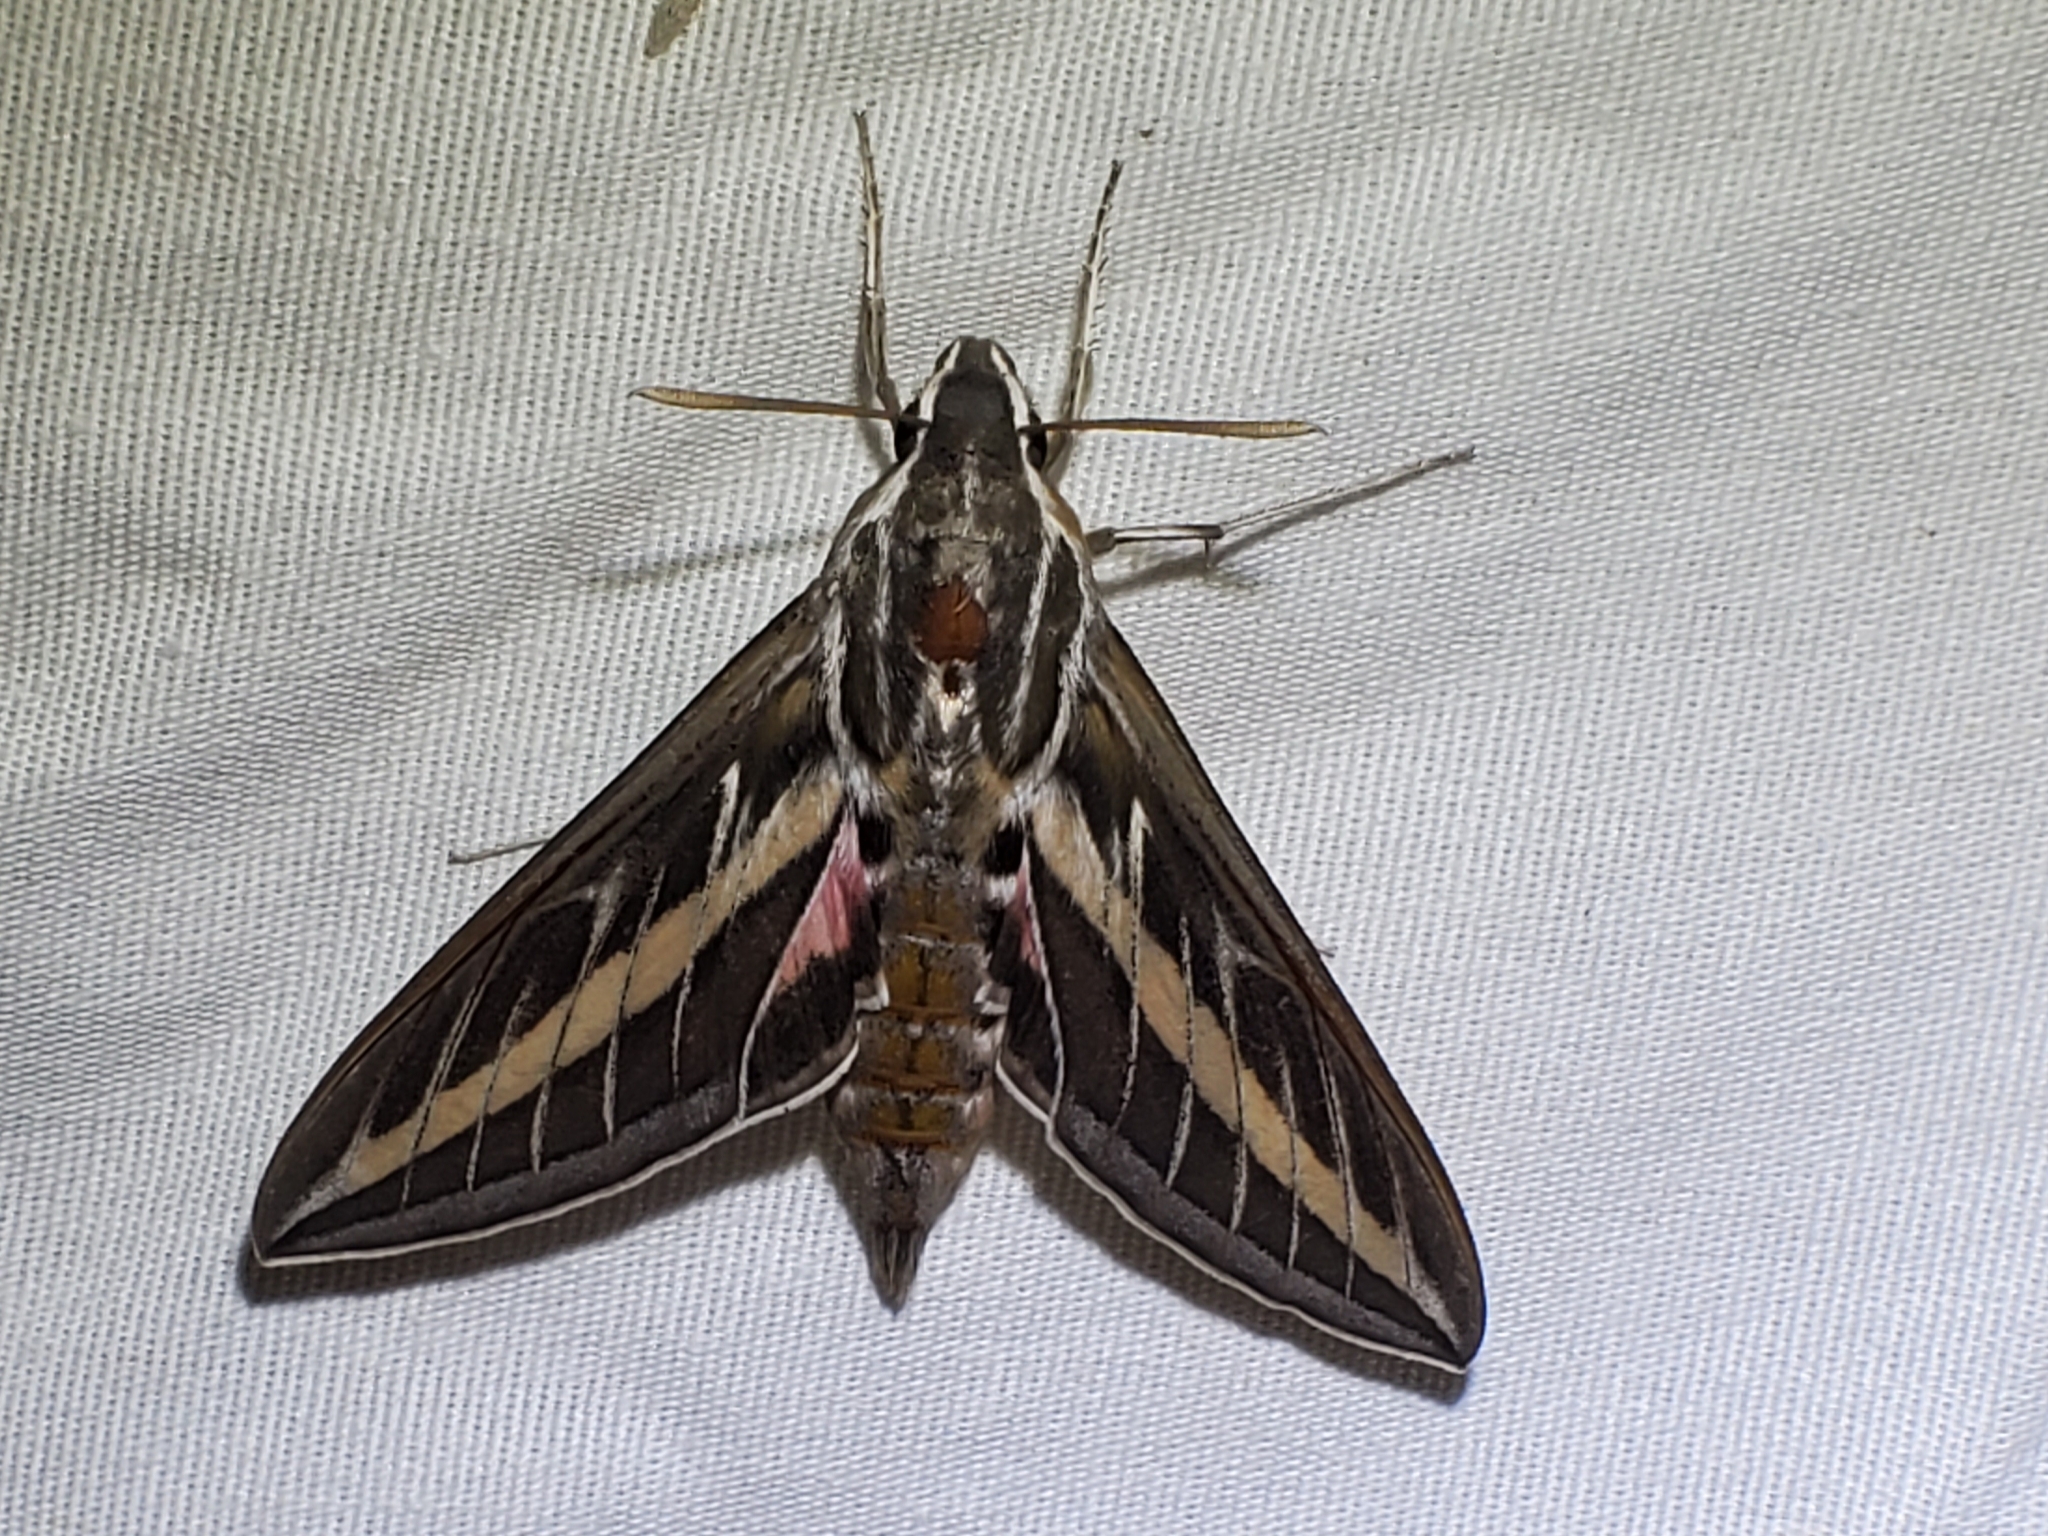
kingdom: Animalia
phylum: Arthropoda
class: Insecta
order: Lepidoptera
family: Sphingidae
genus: Hyles
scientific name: Hyles lineata
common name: White-lined sphinx
